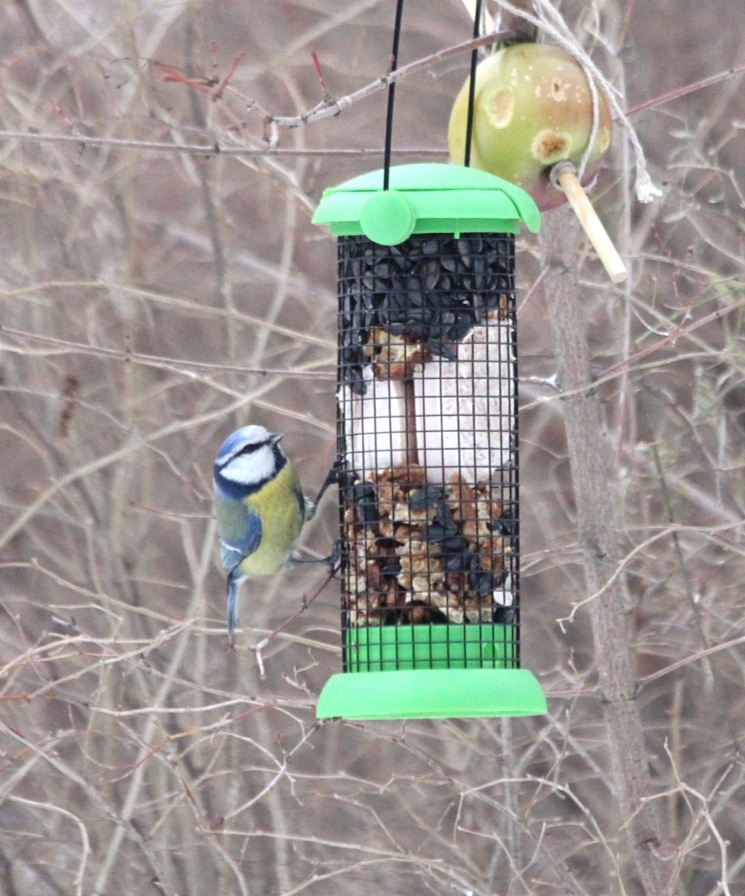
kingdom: Animalia
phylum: Chordata
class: Aves
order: Passeriformes
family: Paridae
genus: Cyanistes
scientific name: Cyanistes caeruleus
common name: Eurasian blue tit
